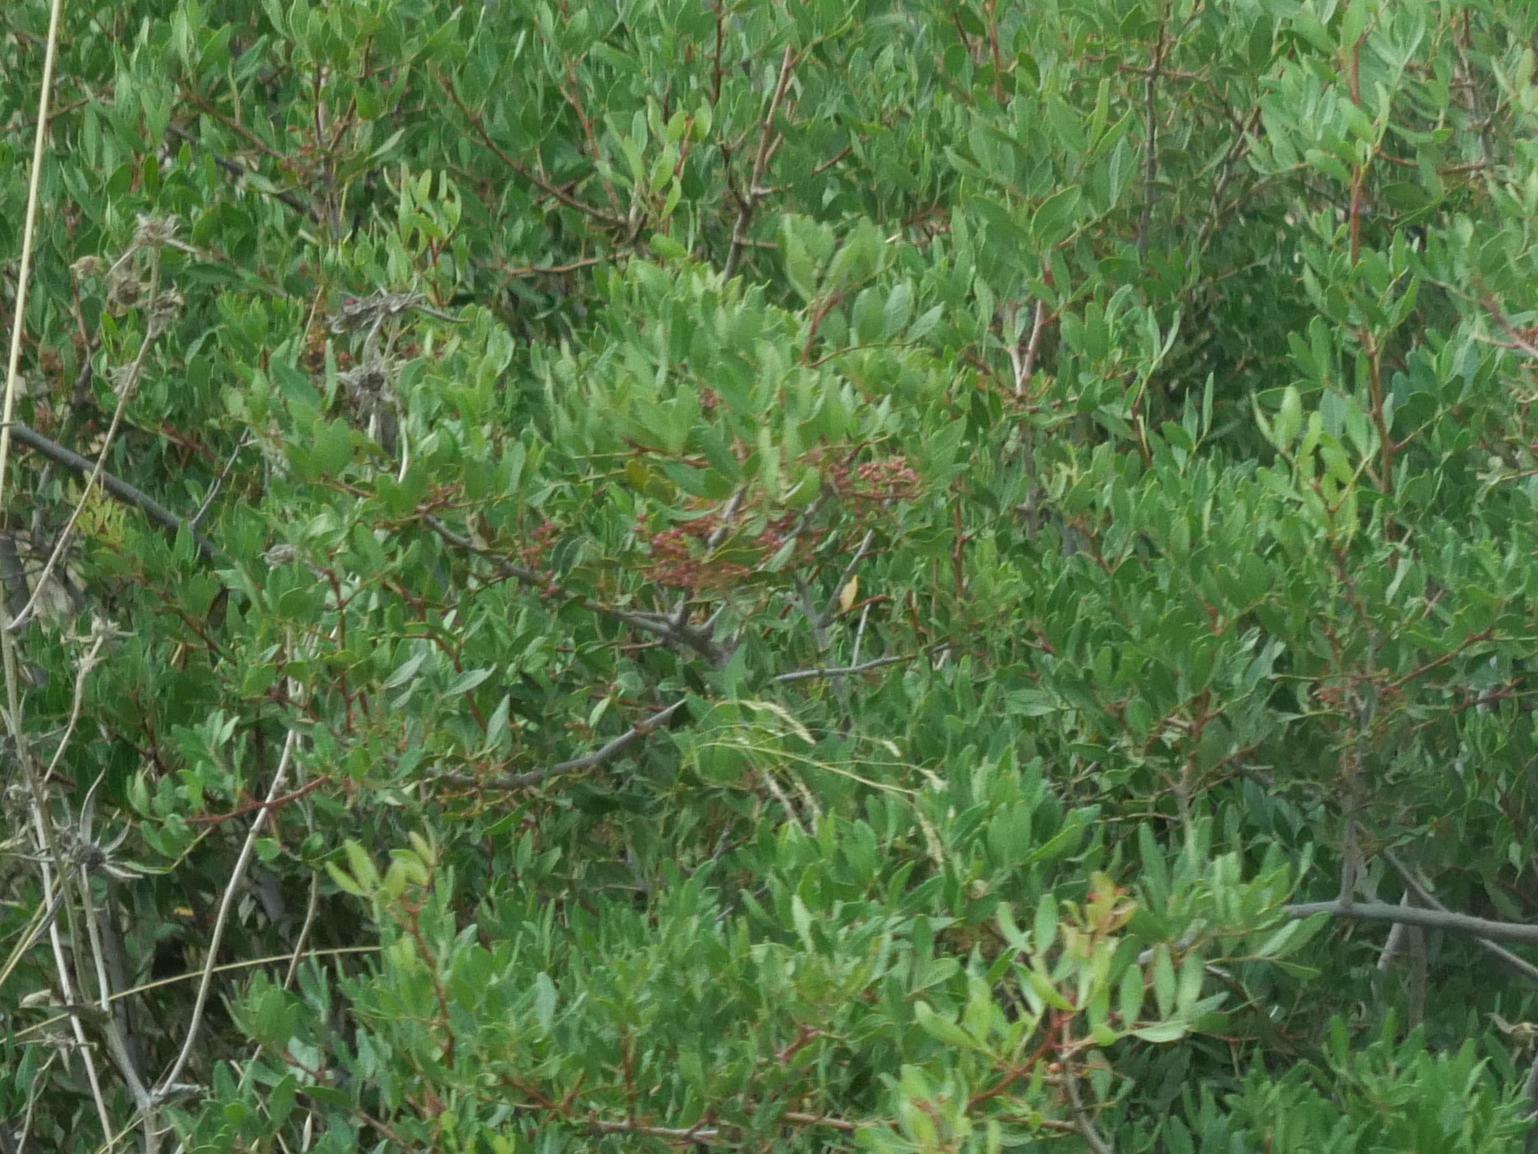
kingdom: Plantae
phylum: Tracheophyta
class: Magnoliopsida
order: Sapindales
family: Anacardiaceae
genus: Pistacia
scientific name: Pistacia lentiscus
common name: Lentisk
